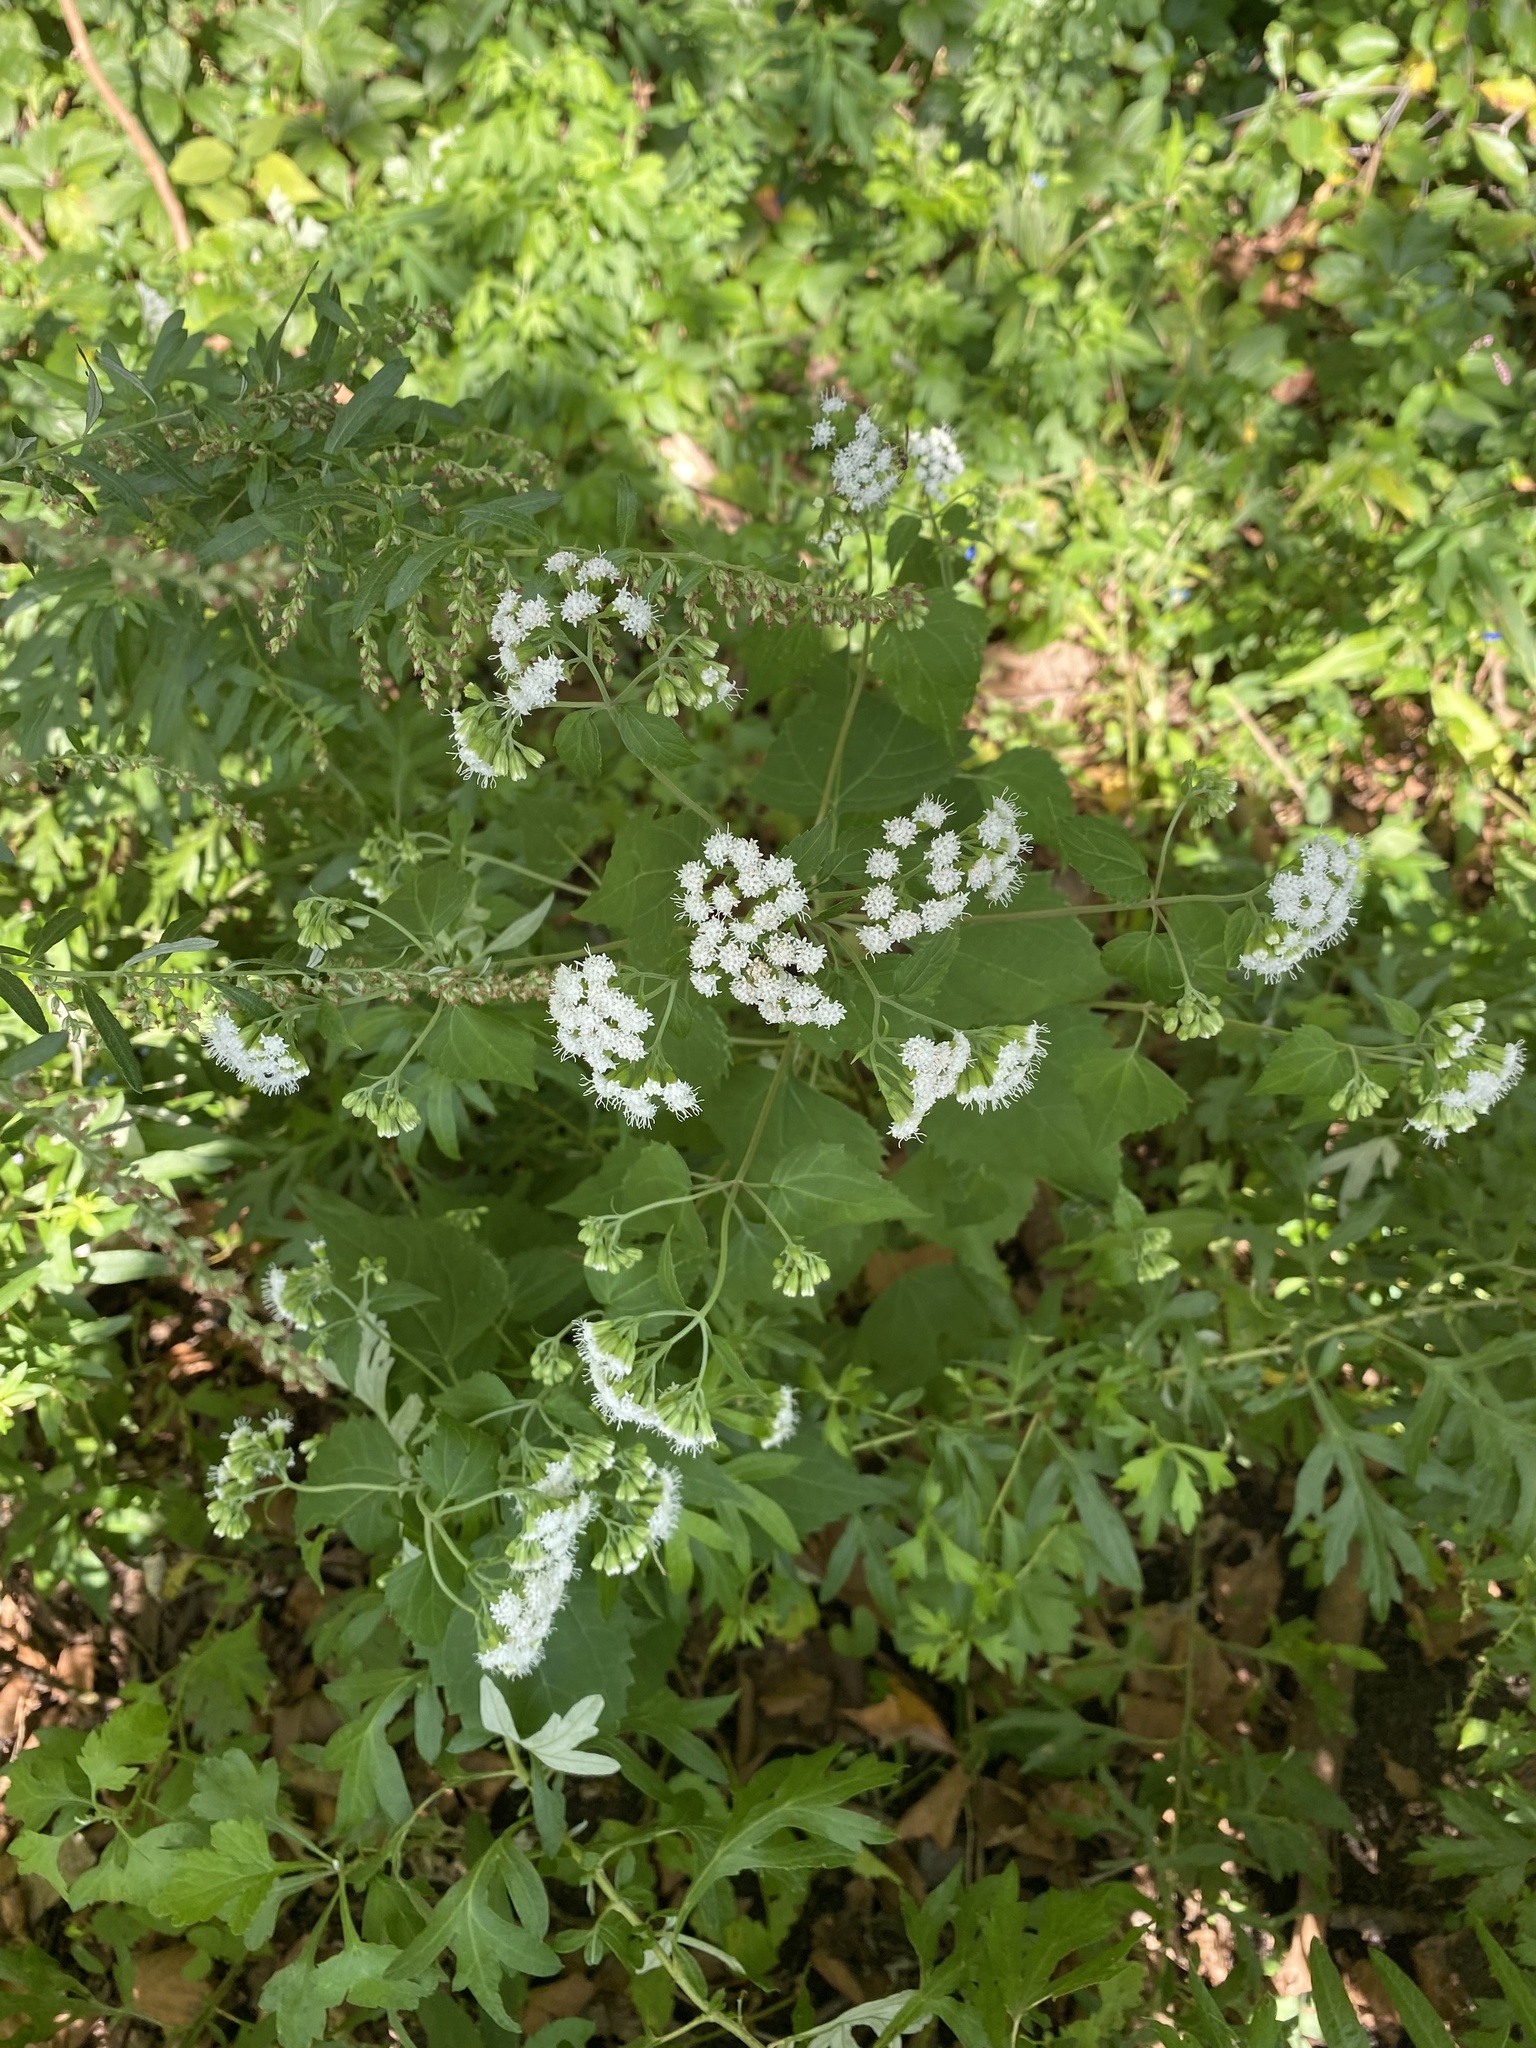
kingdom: Plantae
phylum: Tracheophyta
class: Magnoliopsida
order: Asterales
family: Asteraceae
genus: Ageratina
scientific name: Ageratina altissima
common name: White snakeroot
